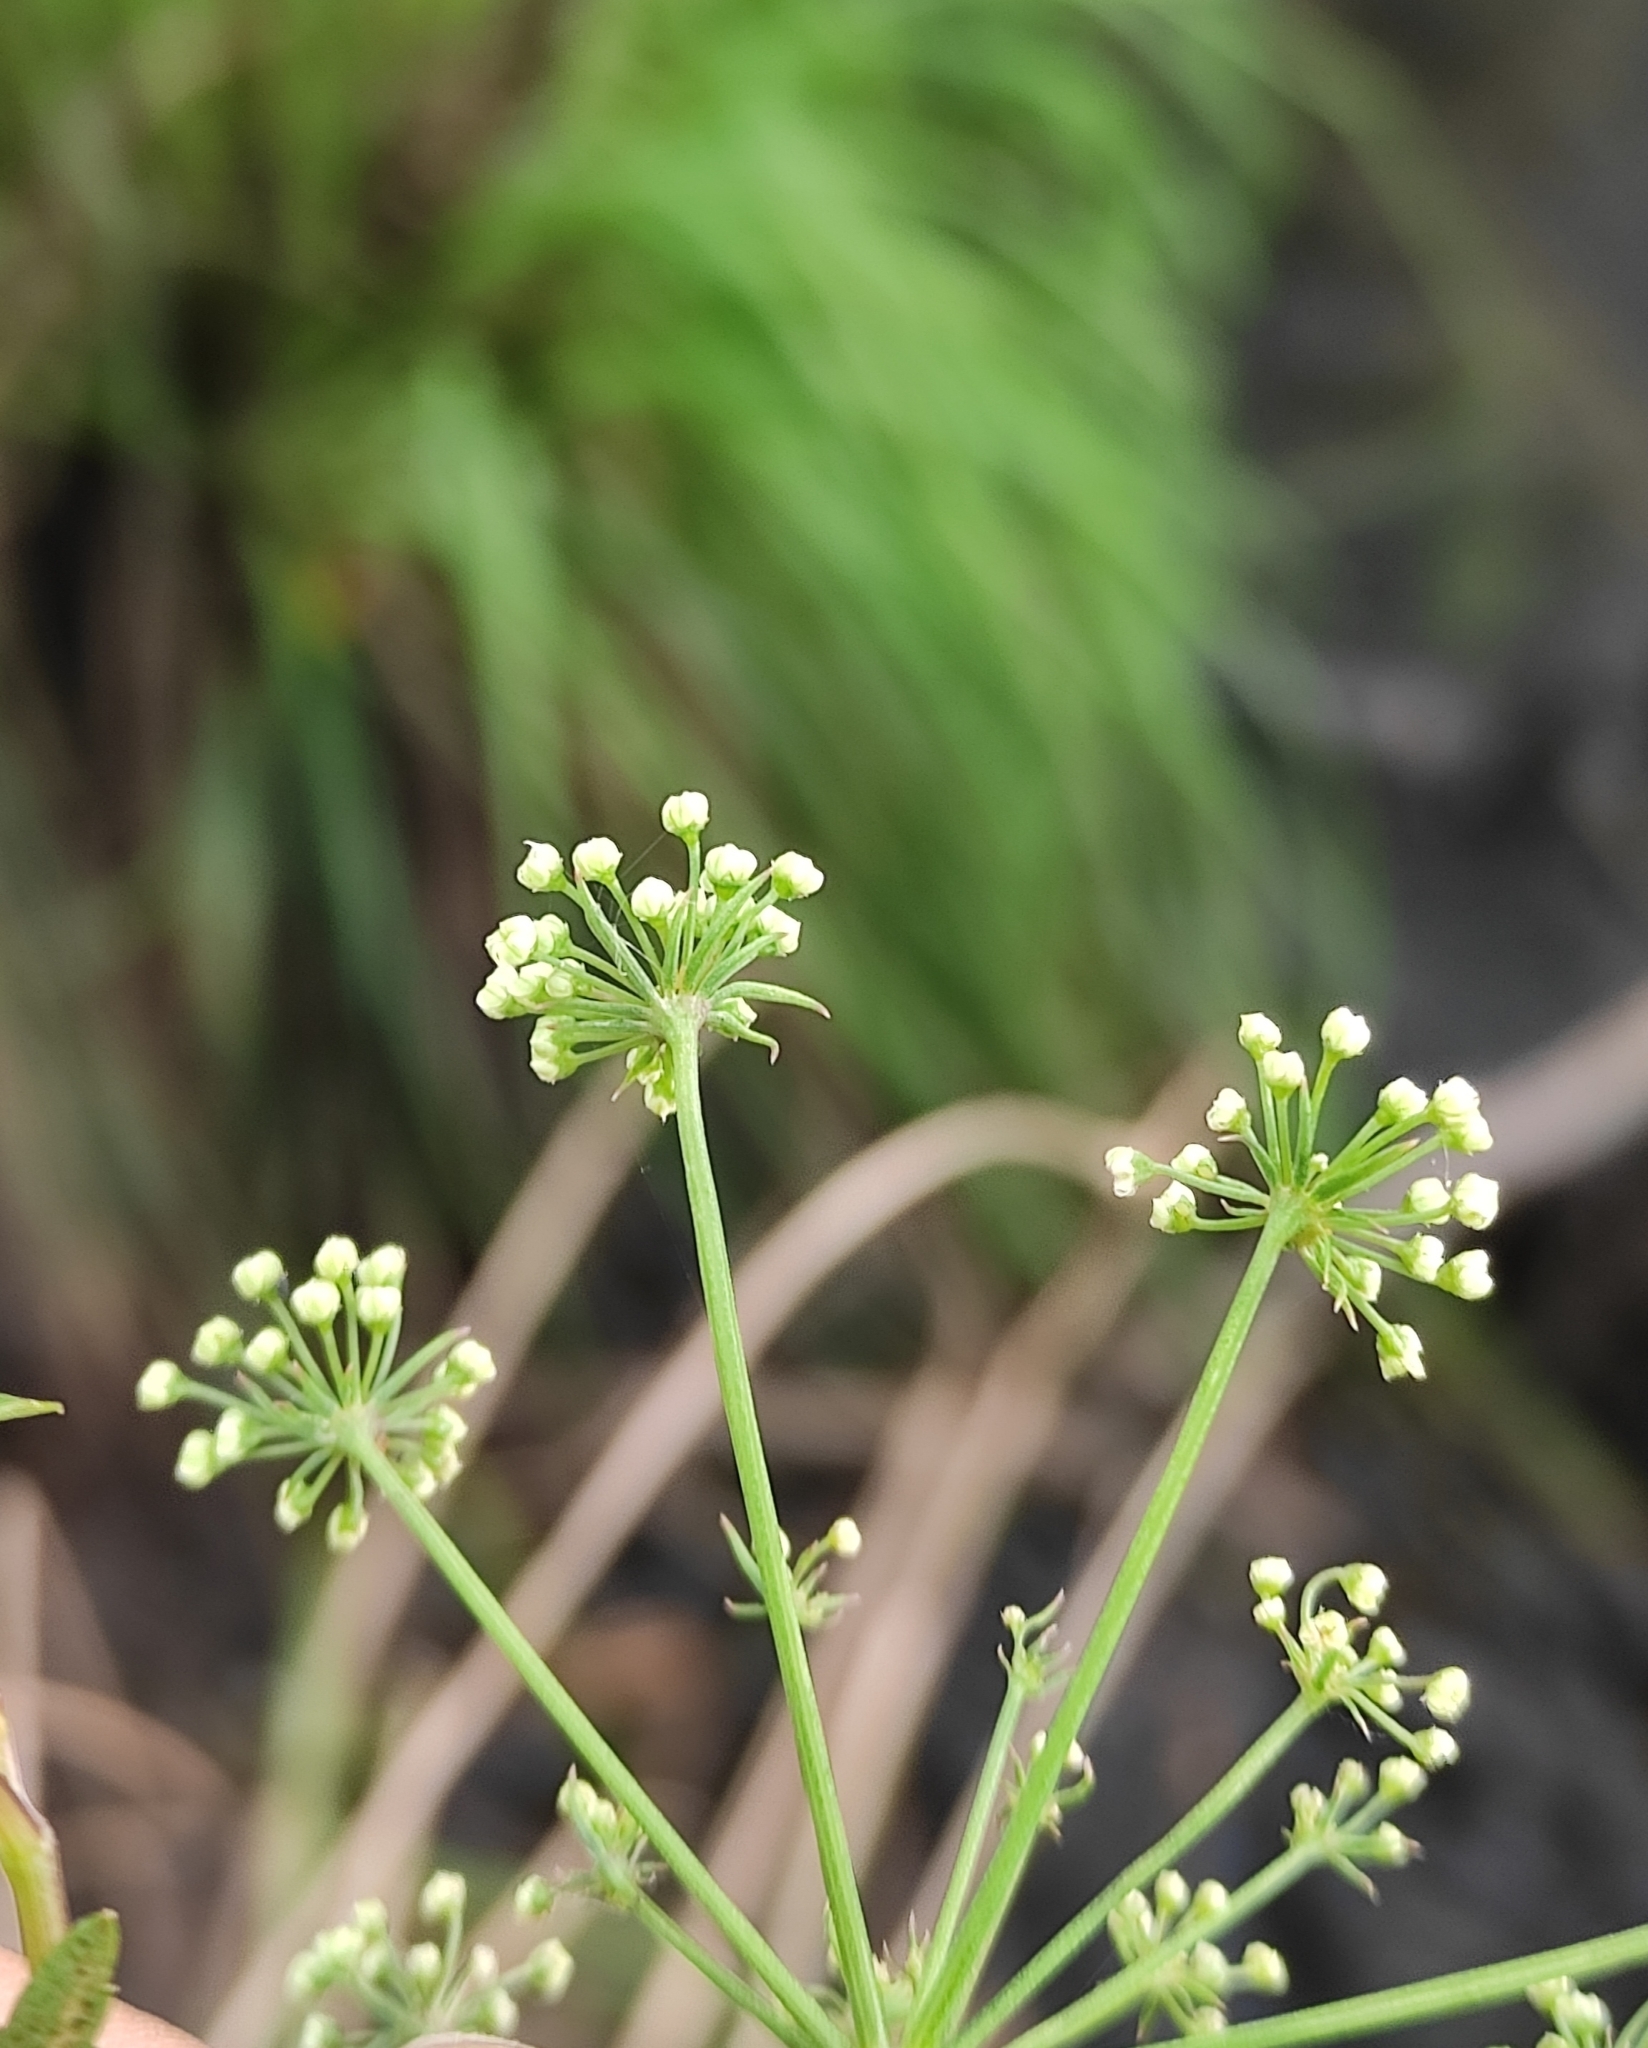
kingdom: Plantae
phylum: Tracheophyta
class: Magnoliopsida
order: Apiales
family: Apiaceae
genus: Cicuta
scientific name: Cicuta virosa
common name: Cowbane
